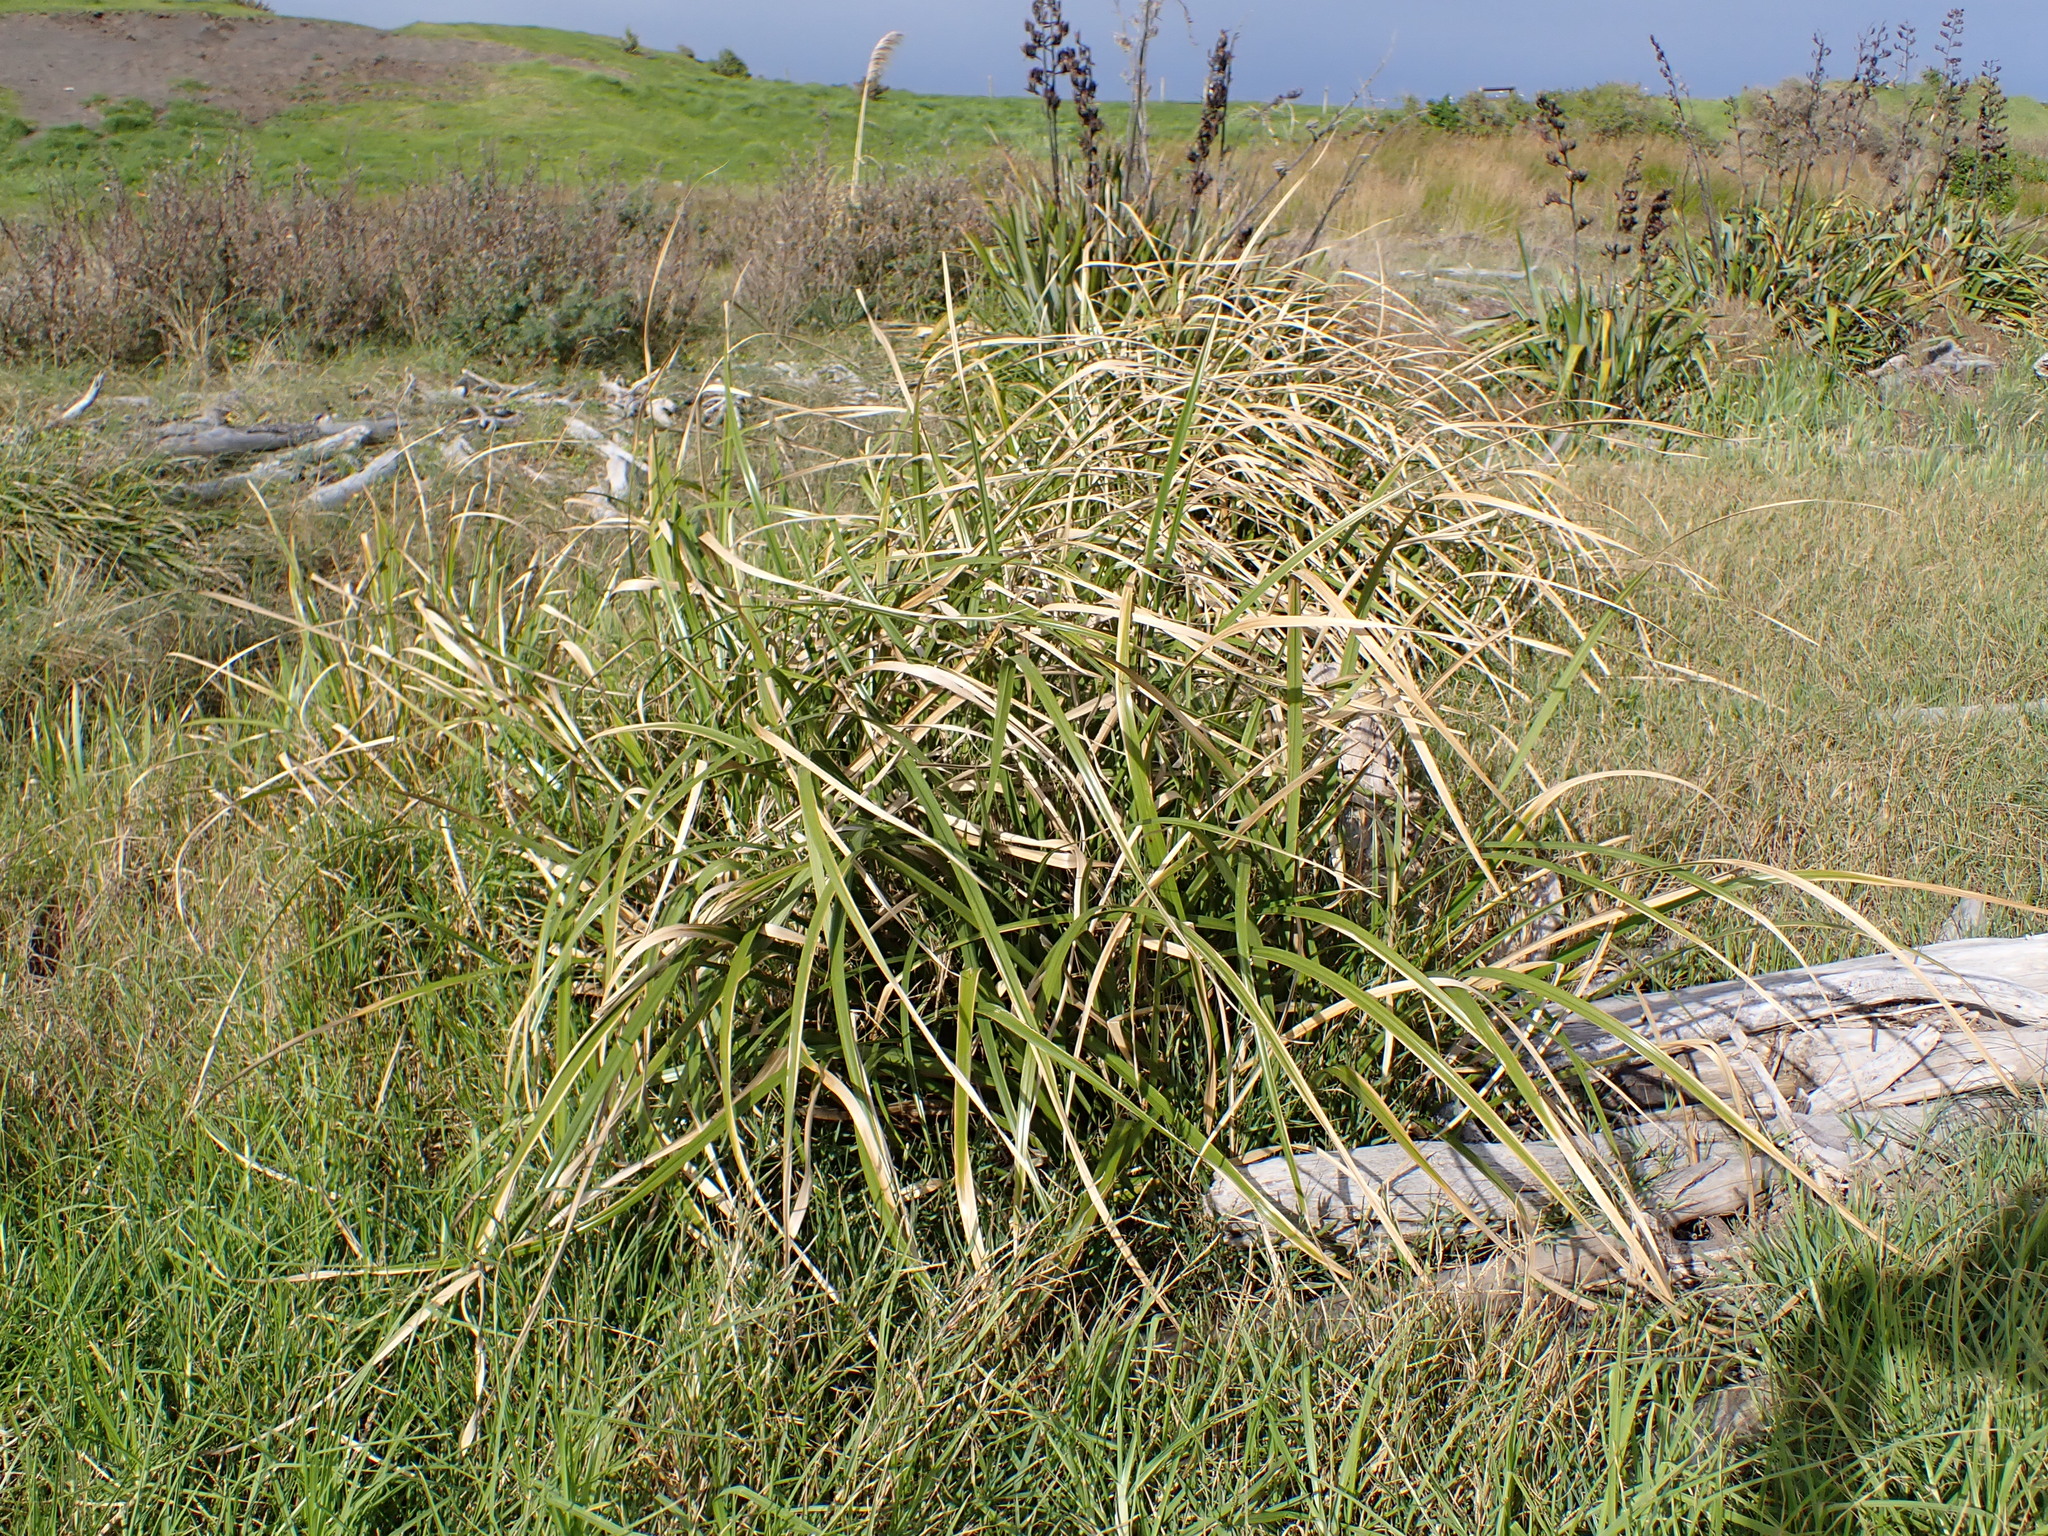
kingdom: Plantae
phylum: Tracheophyta
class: Liliopsida
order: Poales
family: Cyperaceae
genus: Cyperus
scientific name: Cyperus ustulatus
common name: Giant umbrella-sedge
